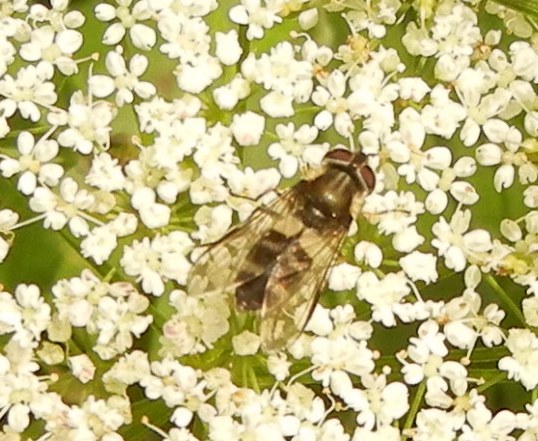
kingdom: Animalia
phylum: Arthropoda
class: Insecta
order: Diptera
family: Syrphidae
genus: Leucozona
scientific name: Leucozona laternaria
